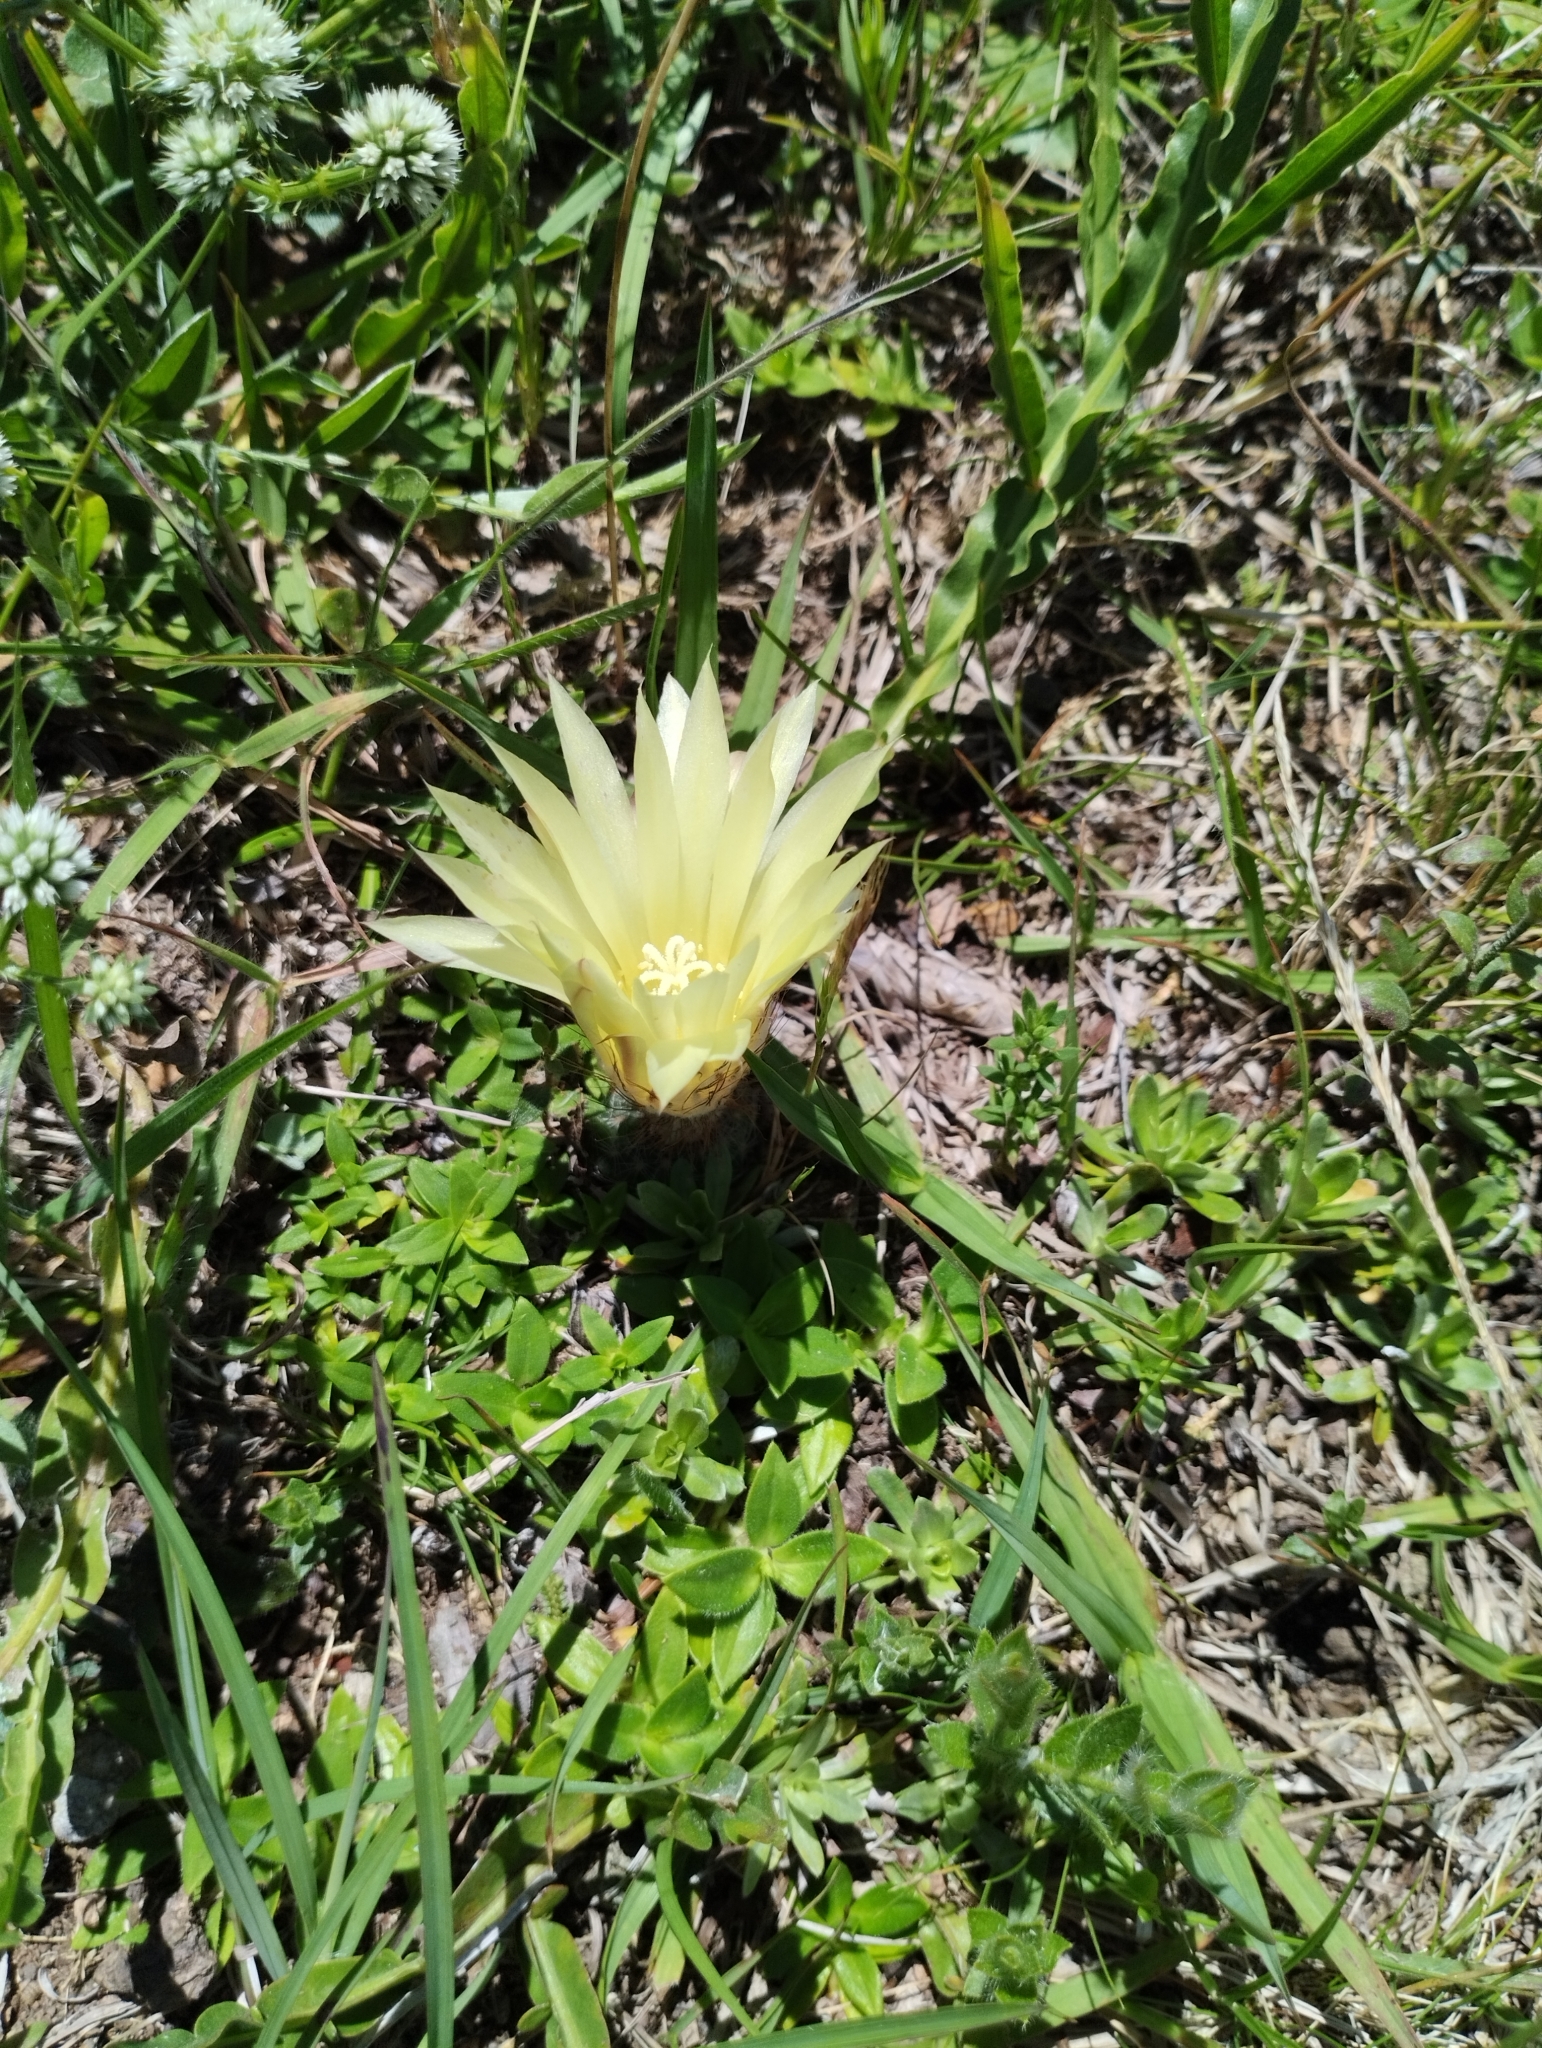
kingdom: Plantae
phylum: Tracheophyta
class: Magnoliopsida
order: Caryophyllales
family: Cactaceae
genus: Frailea
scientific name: Frailea pygmaea
